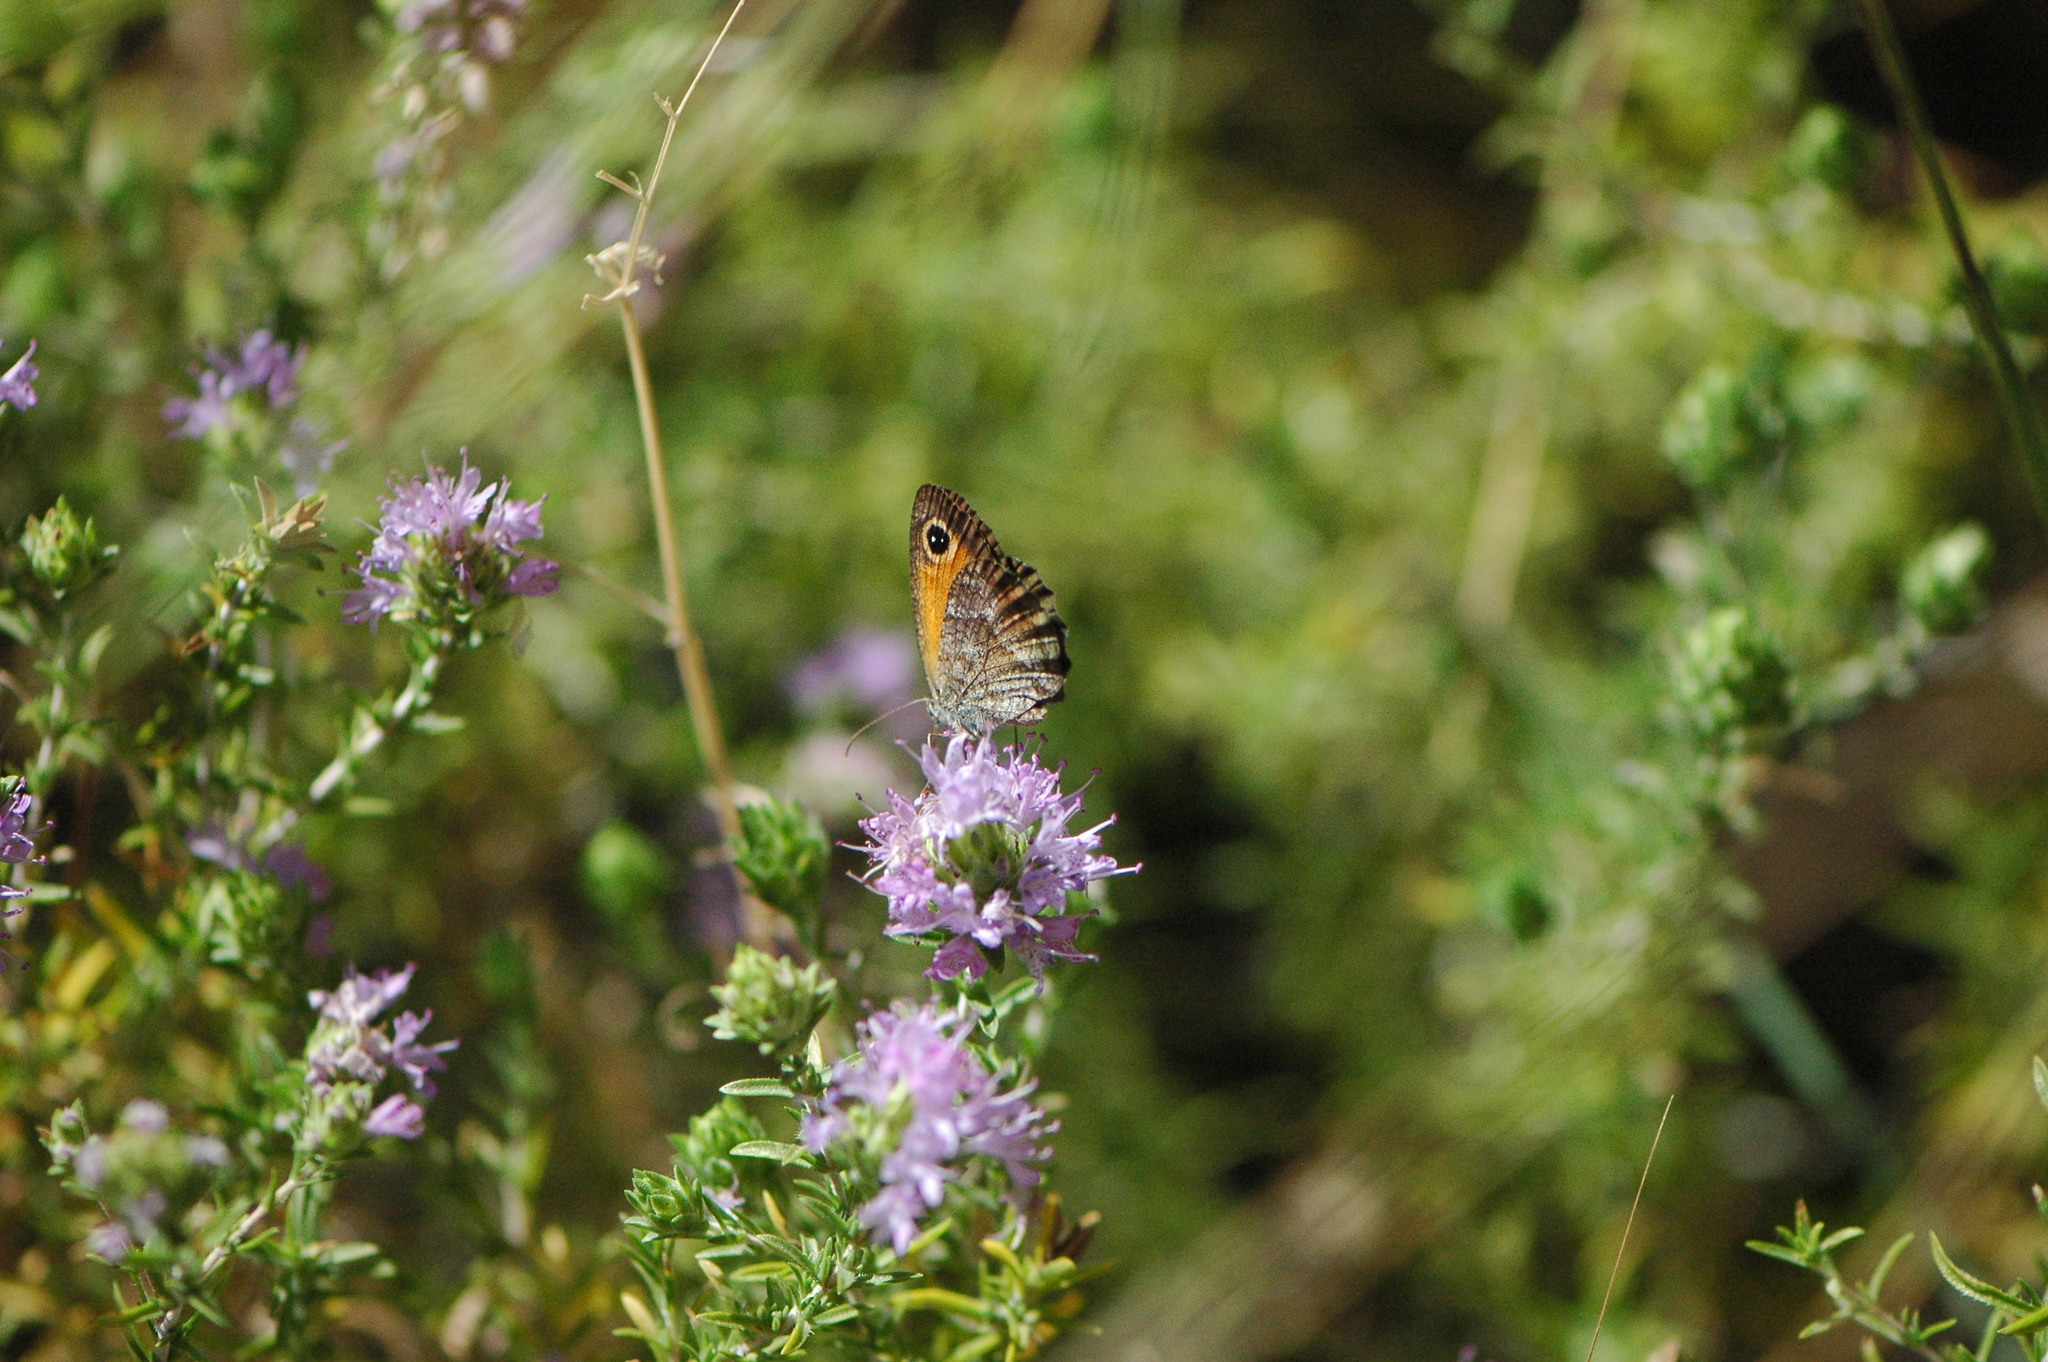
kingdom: Animalia
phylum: Arthropoda
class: Insecta
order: Lepidoptera
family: Nymphalidae
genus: Pyronia
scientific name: Pyronia cecilia
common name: Southern gatekeeper
